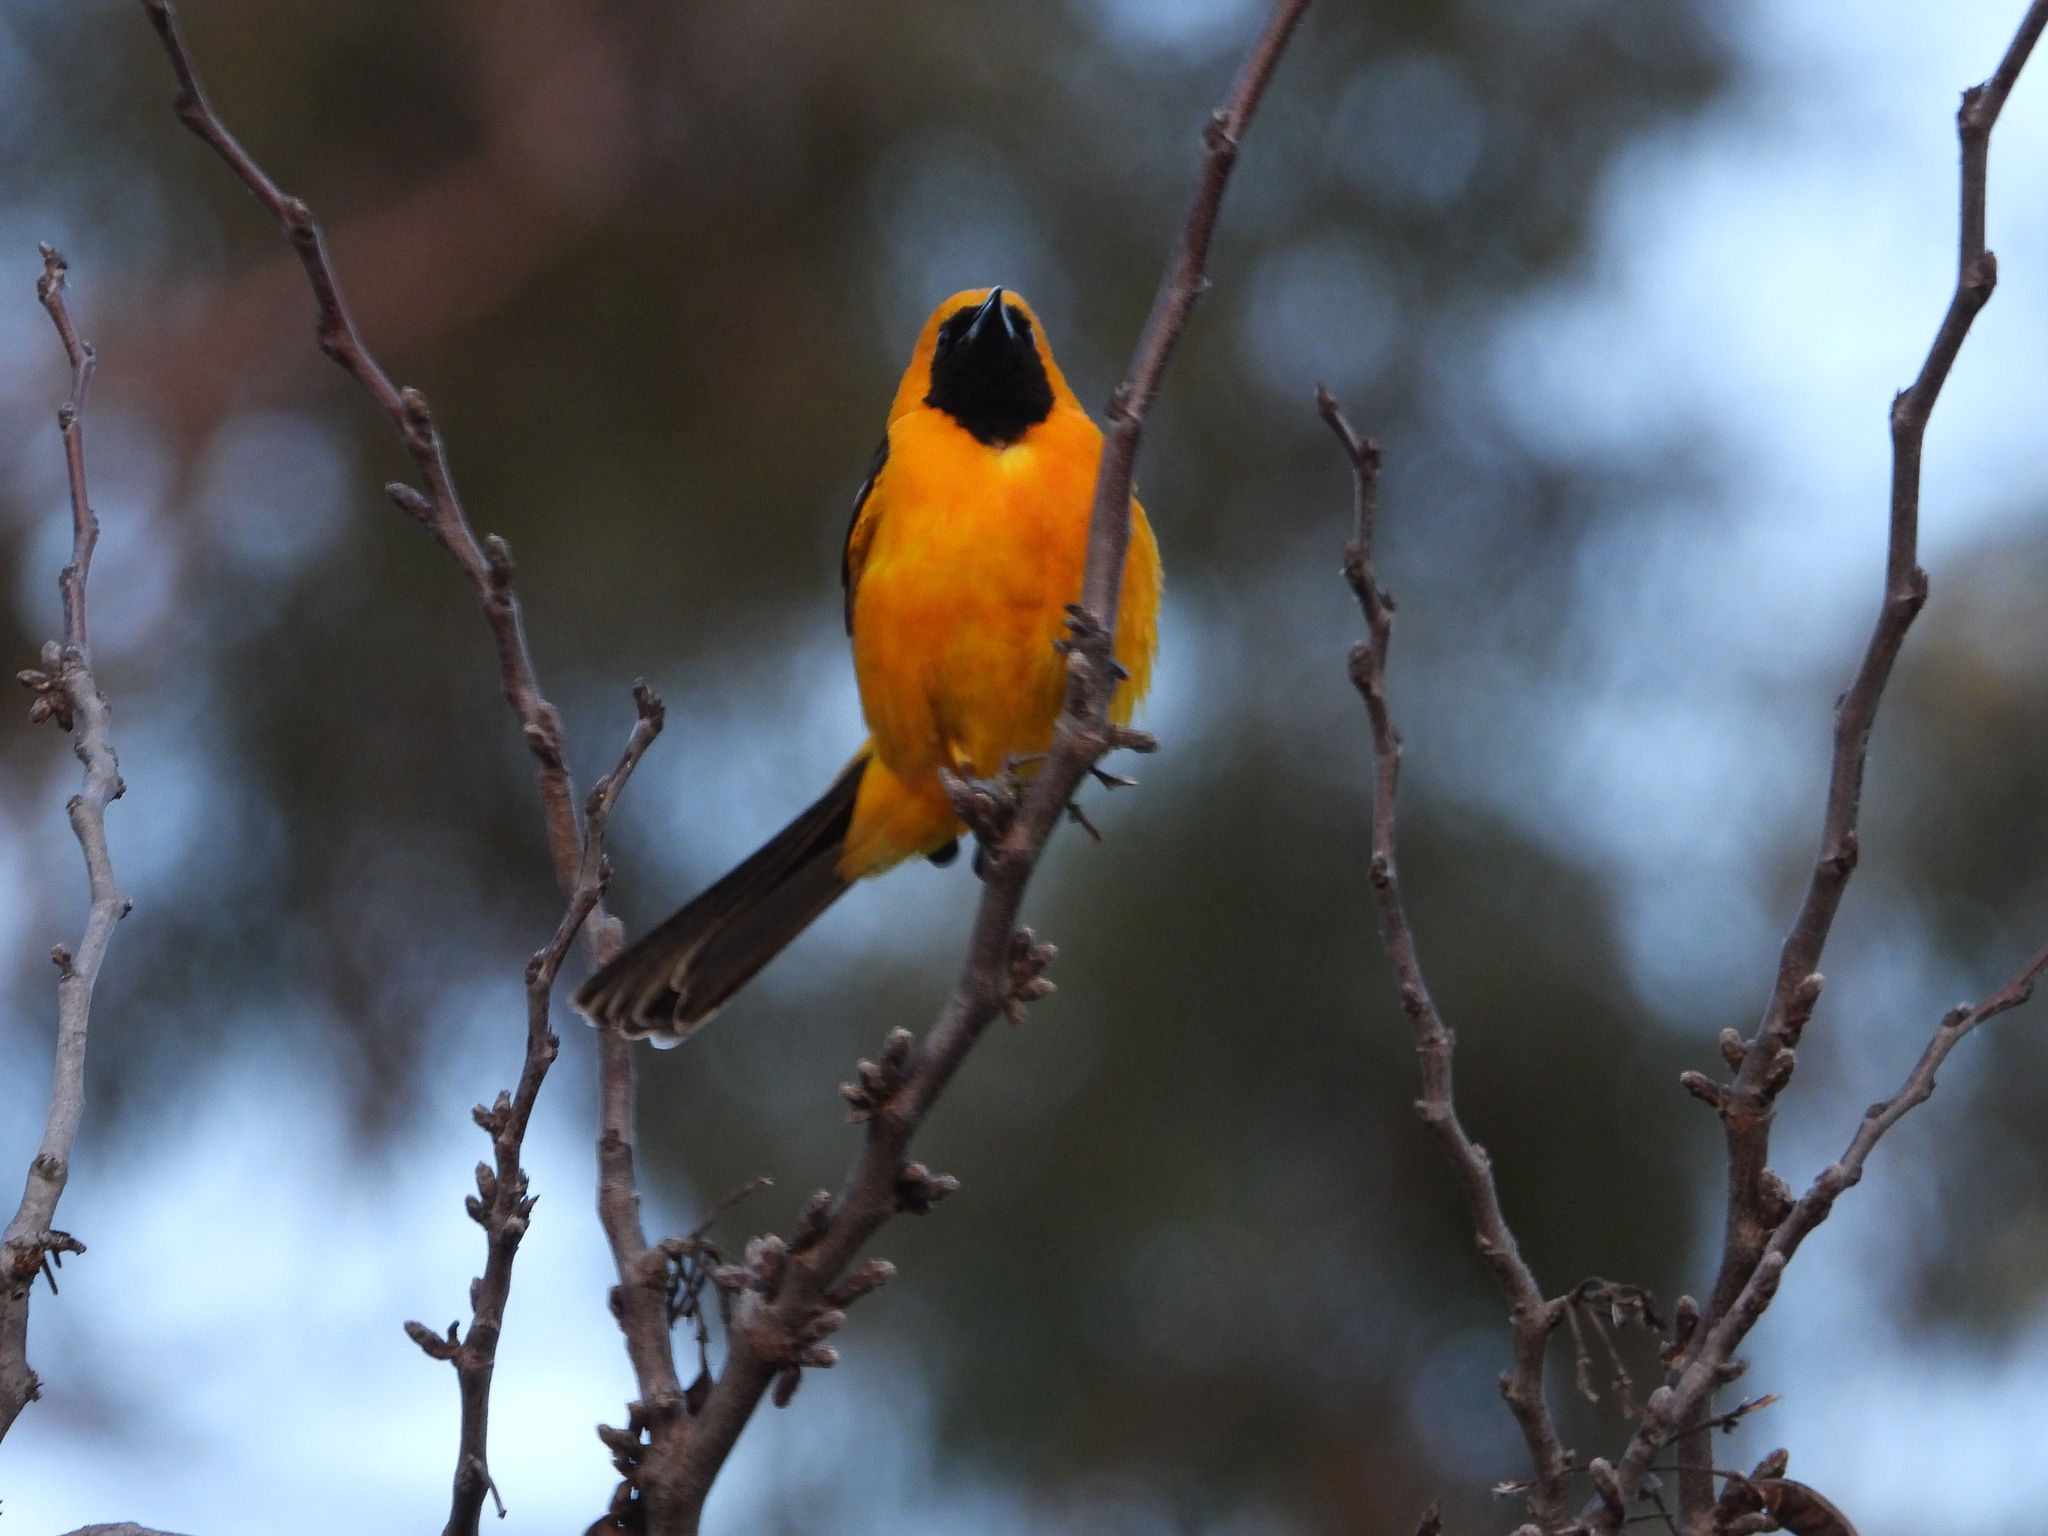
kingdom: Animalia
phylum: Chordata
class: Aves
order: Passeriformes
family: Icteridae
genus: Icterus
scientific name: Icterus cucullatus
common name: Hooded oriole
